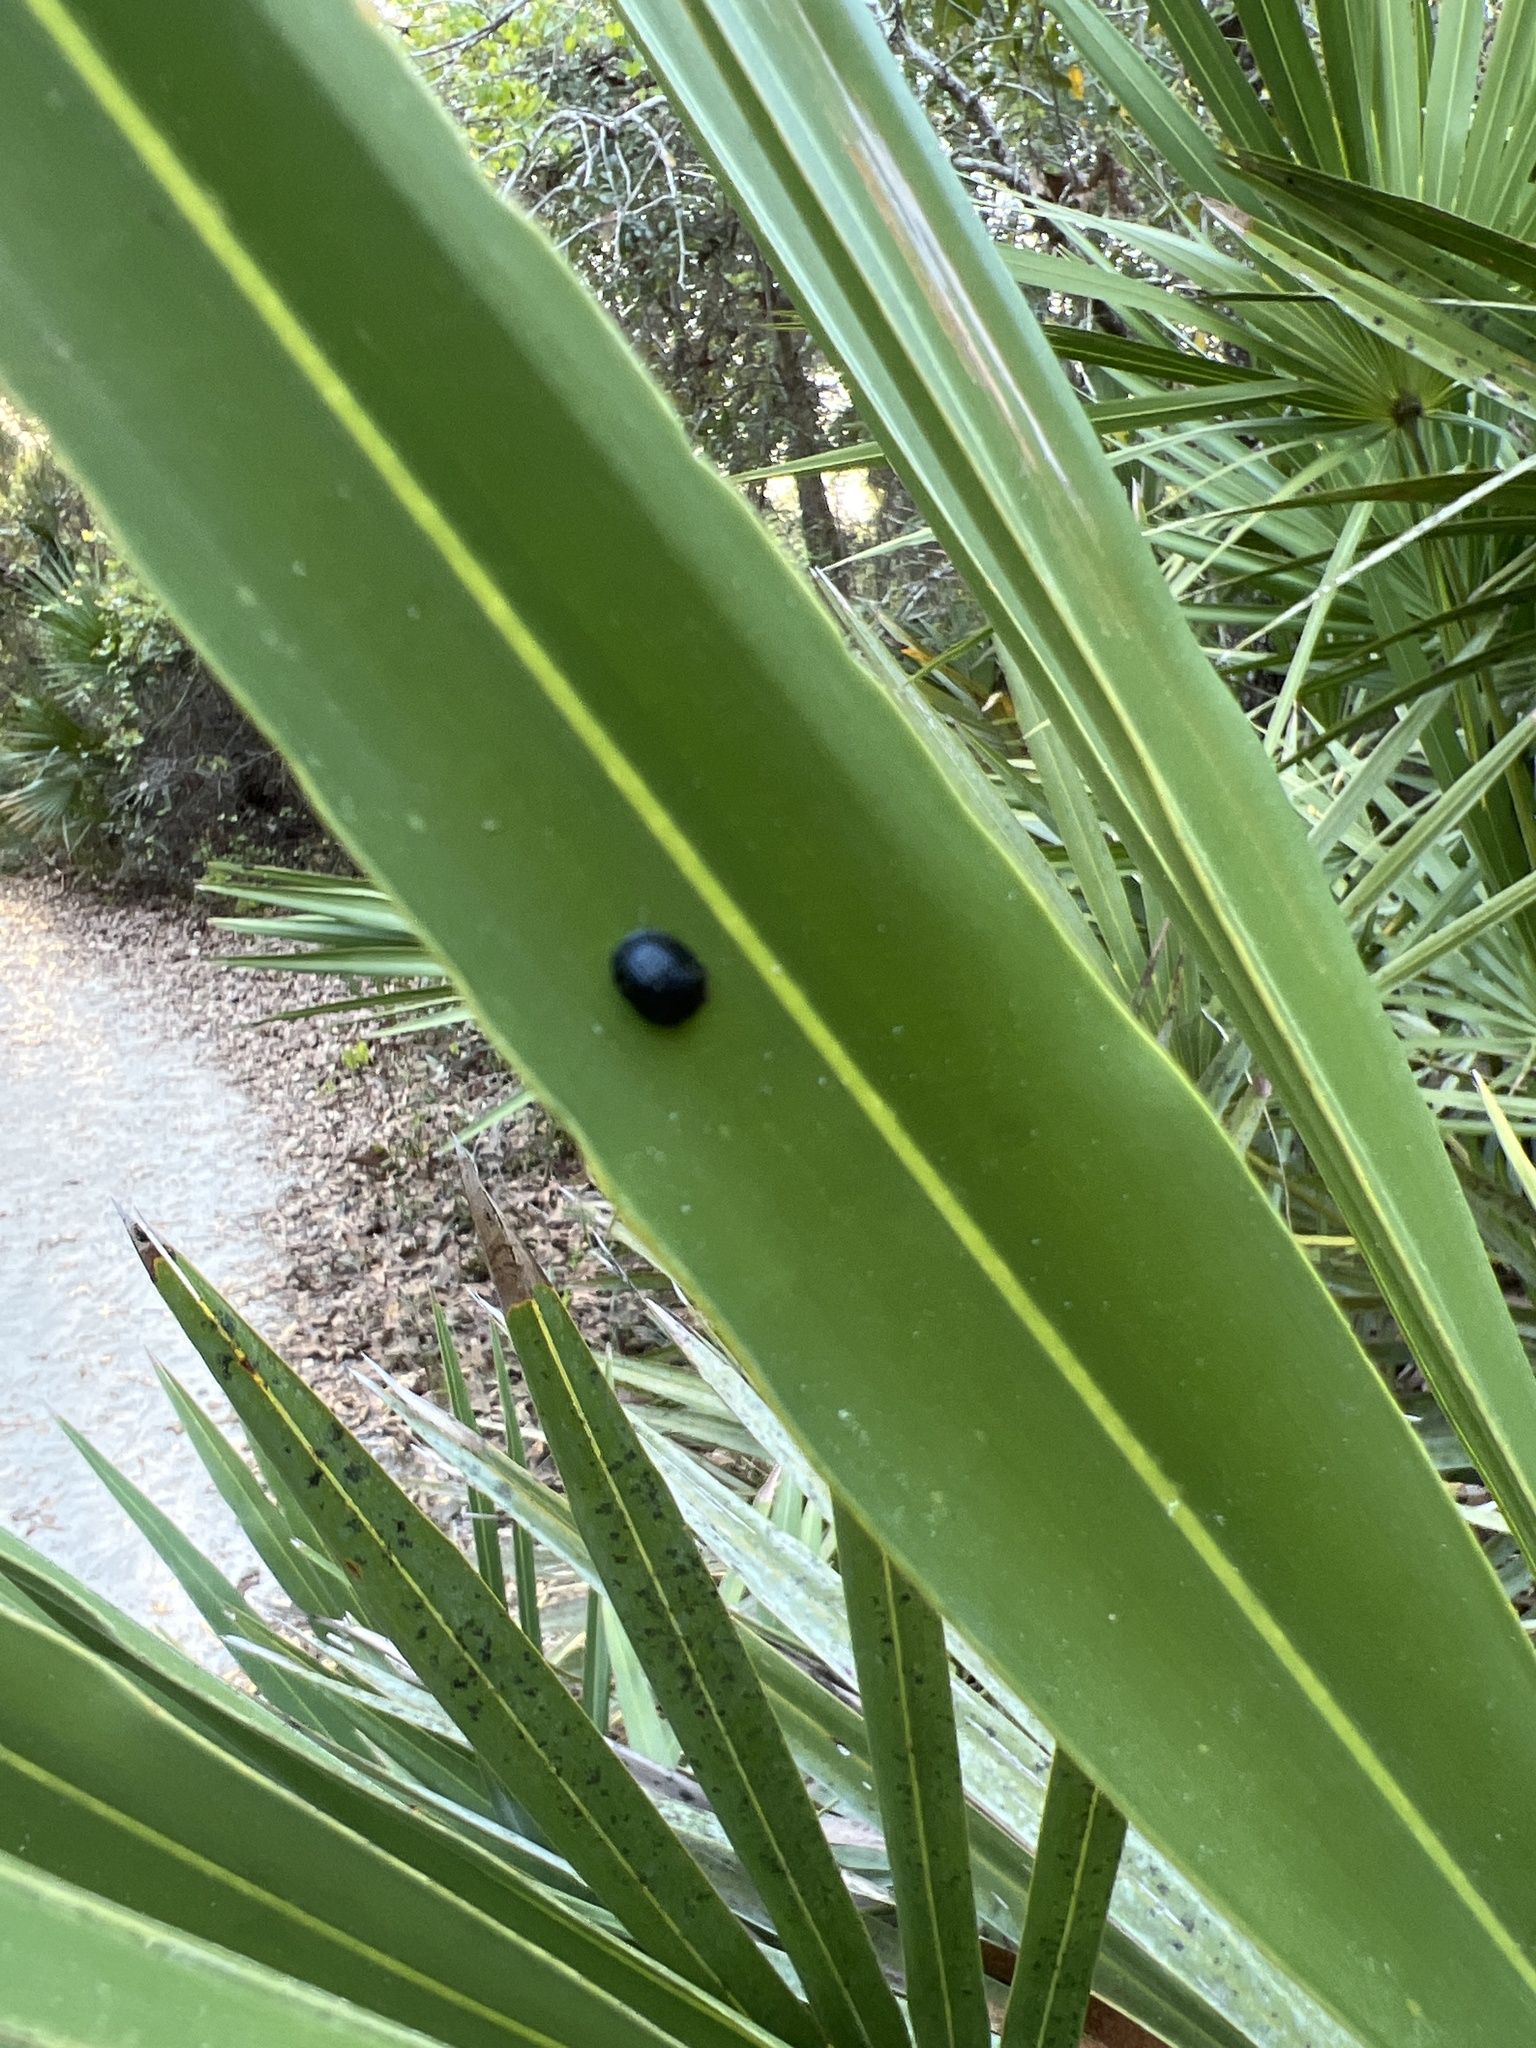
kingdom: Animalia
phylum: Arthropoda
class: Insecta
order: Coleoptera
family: Chrysomelidae
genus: Hemisphaerota
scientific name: Hemisphaerota cyanea
